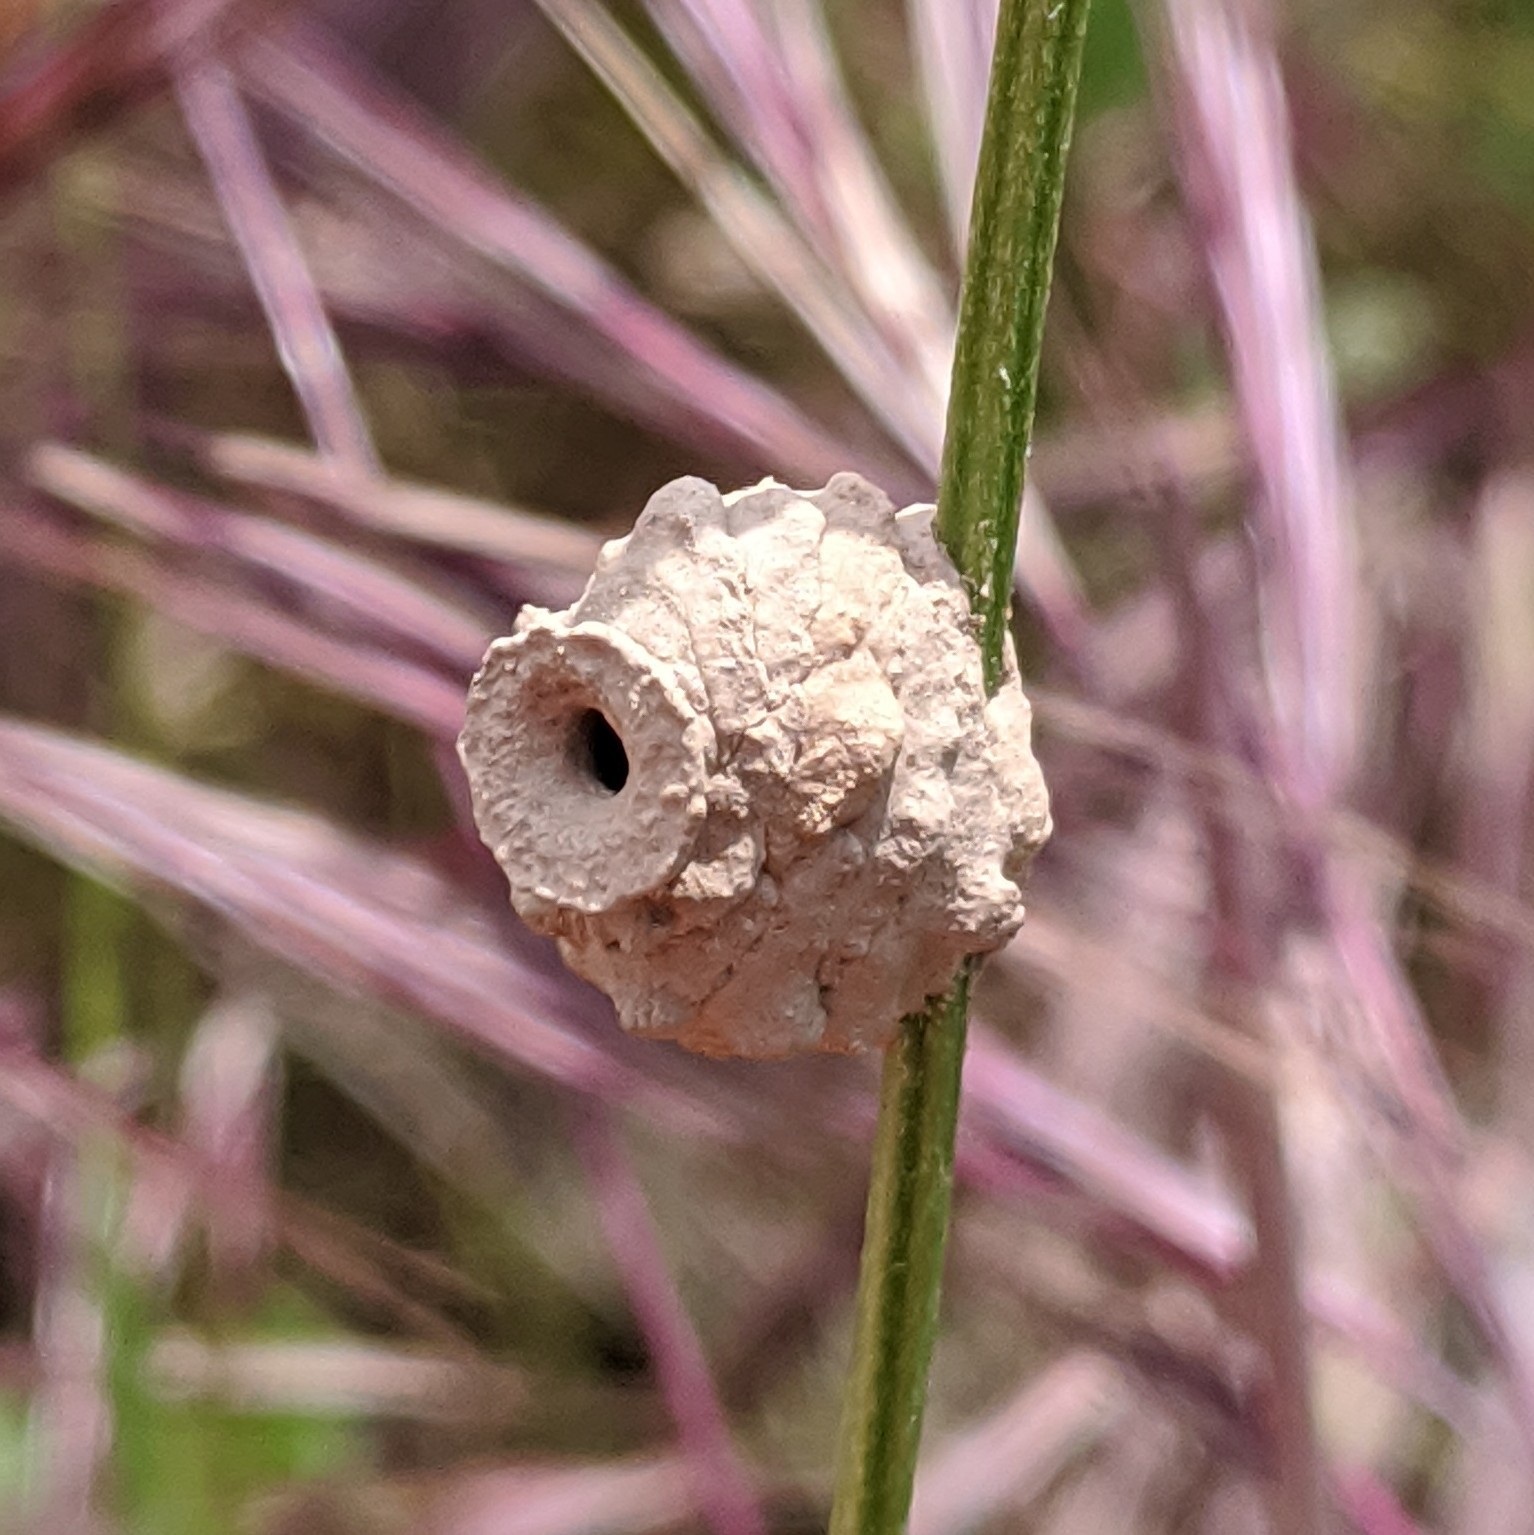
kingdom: Animalia
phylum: Arthropoda
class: Insecta
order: Hymenoptera
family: Eumenidae
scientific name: Eumenidae
